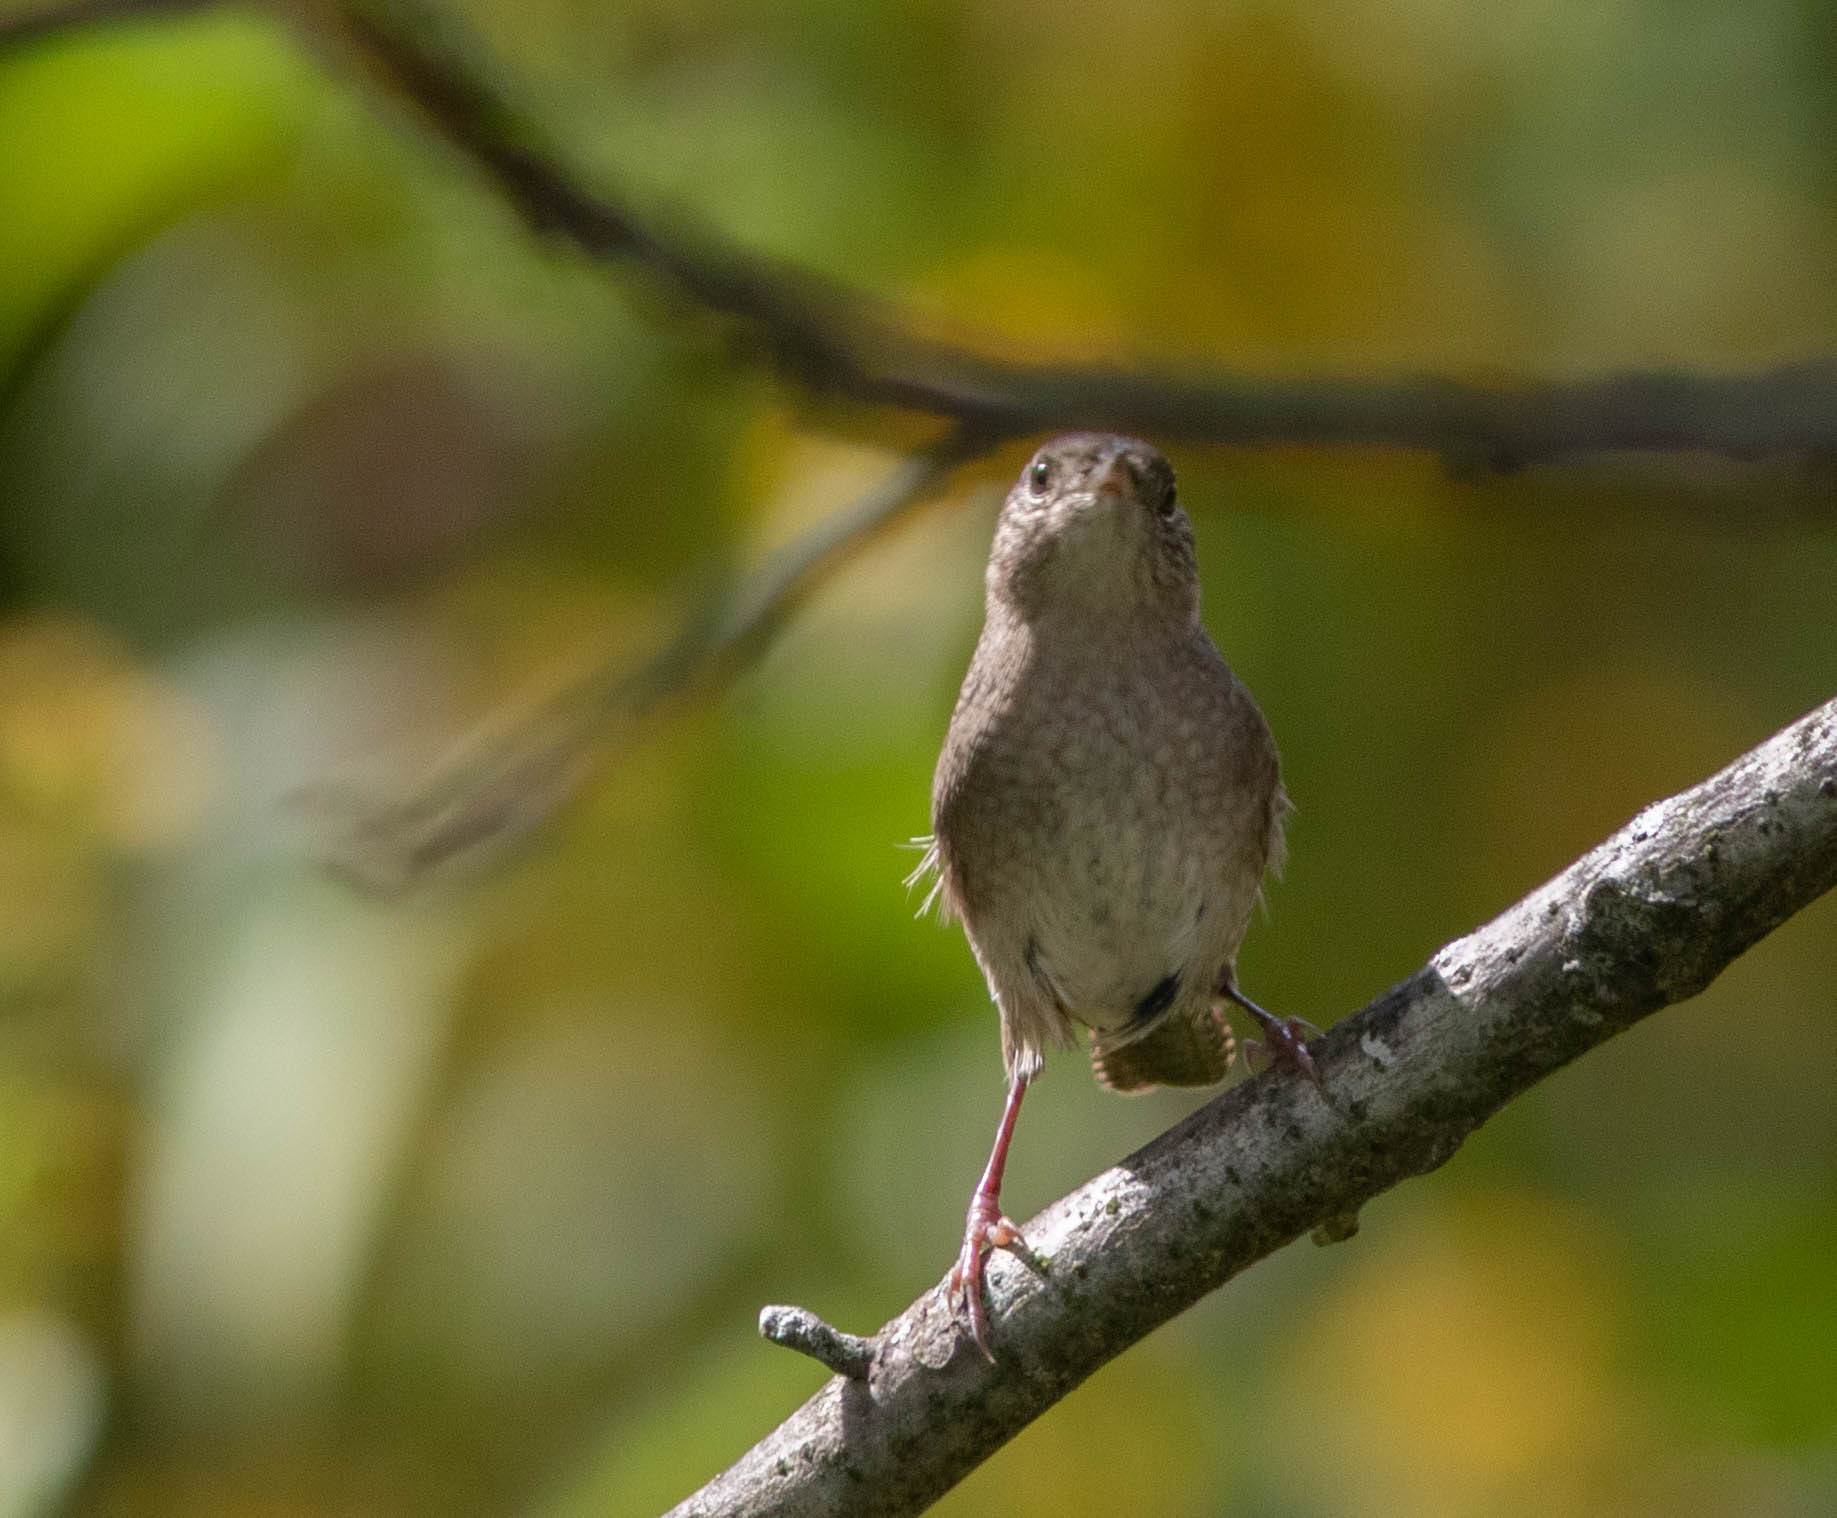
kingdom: Animalia
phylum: Chordata
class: Aves
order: Passeriformes
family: Troglodytidae
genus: Troglodytes
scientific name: Troglodytes aedon
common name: House wren
